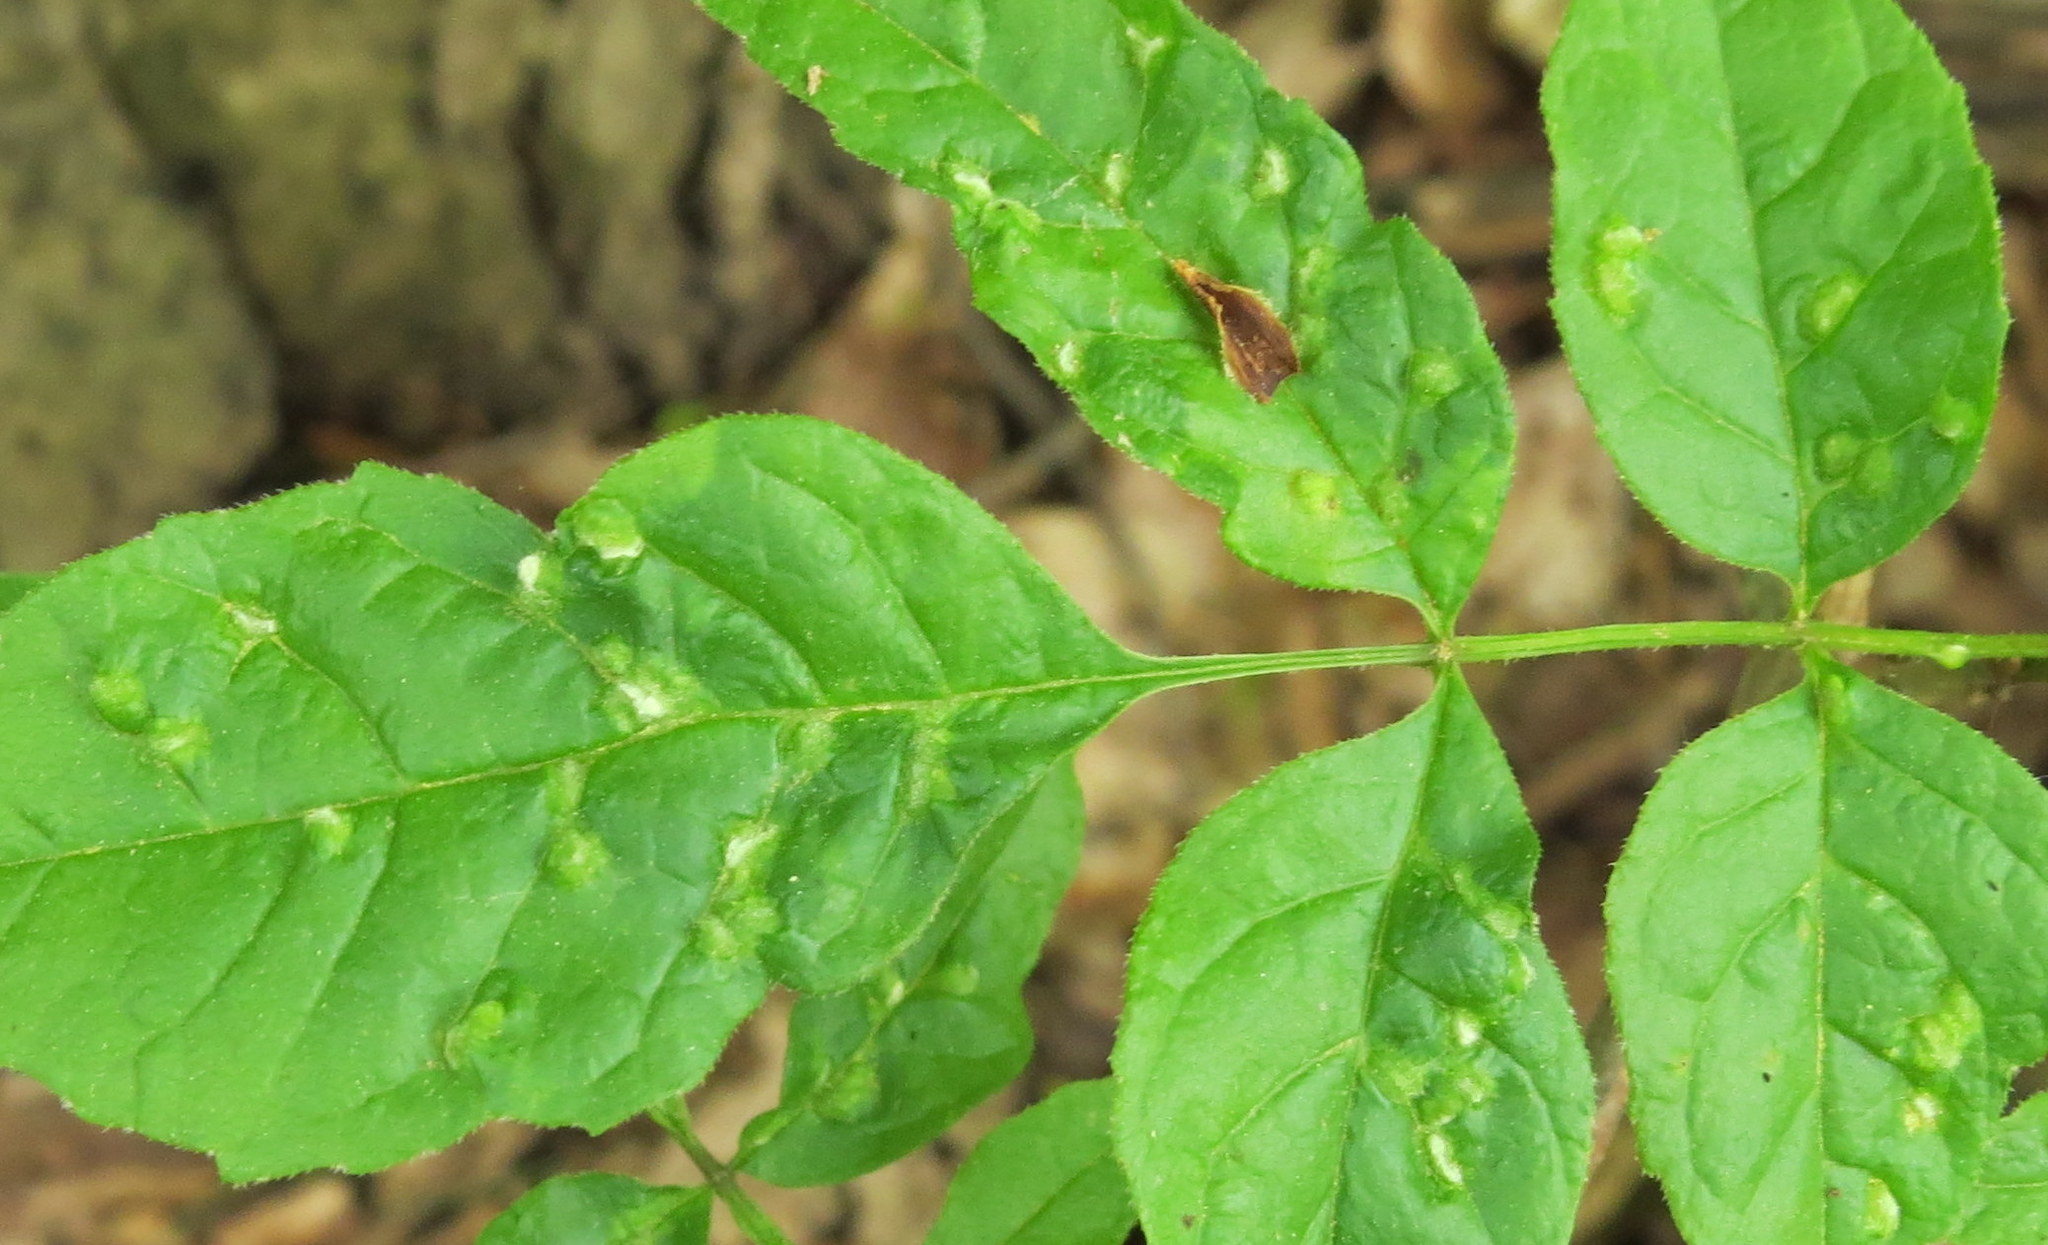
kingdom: Animalia
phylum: Arthropoda
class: Arachnida
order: Trombidiformes
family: Eriophyidae
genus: Aceria
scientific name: Aceria fraxinicola
